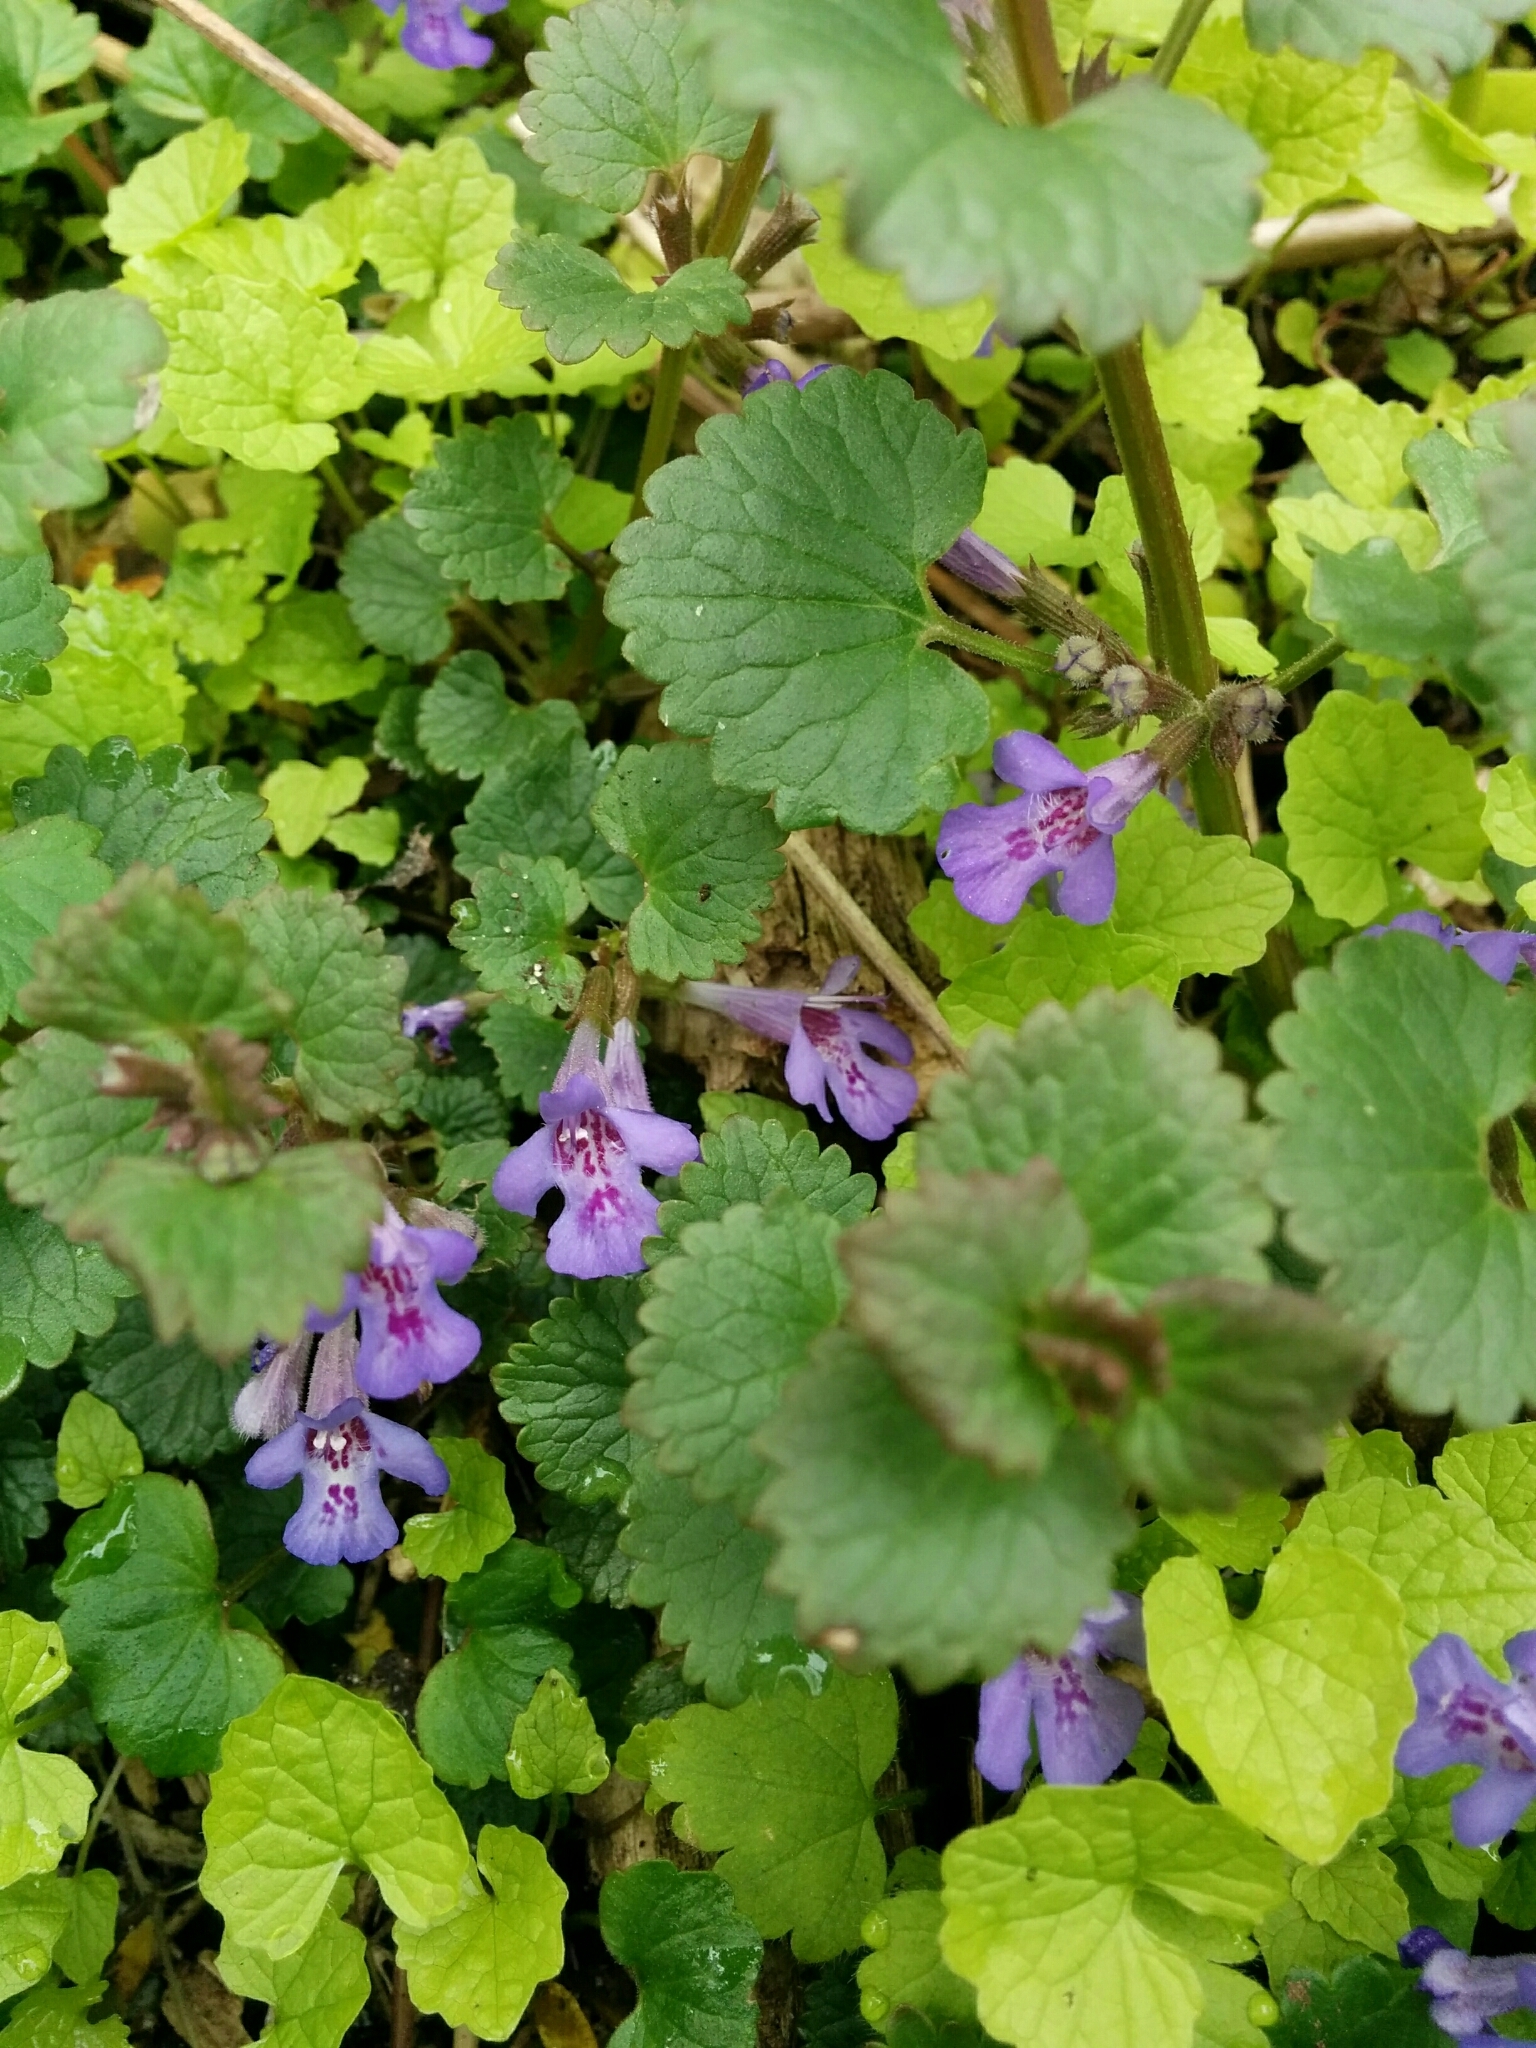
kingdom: Plantae
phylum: Tracheophyta
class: Magnoliopsida
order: Lamiales
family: Lamiaceae
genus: Glechoma
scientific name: Glechoma hederacea
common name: Ground ivy
